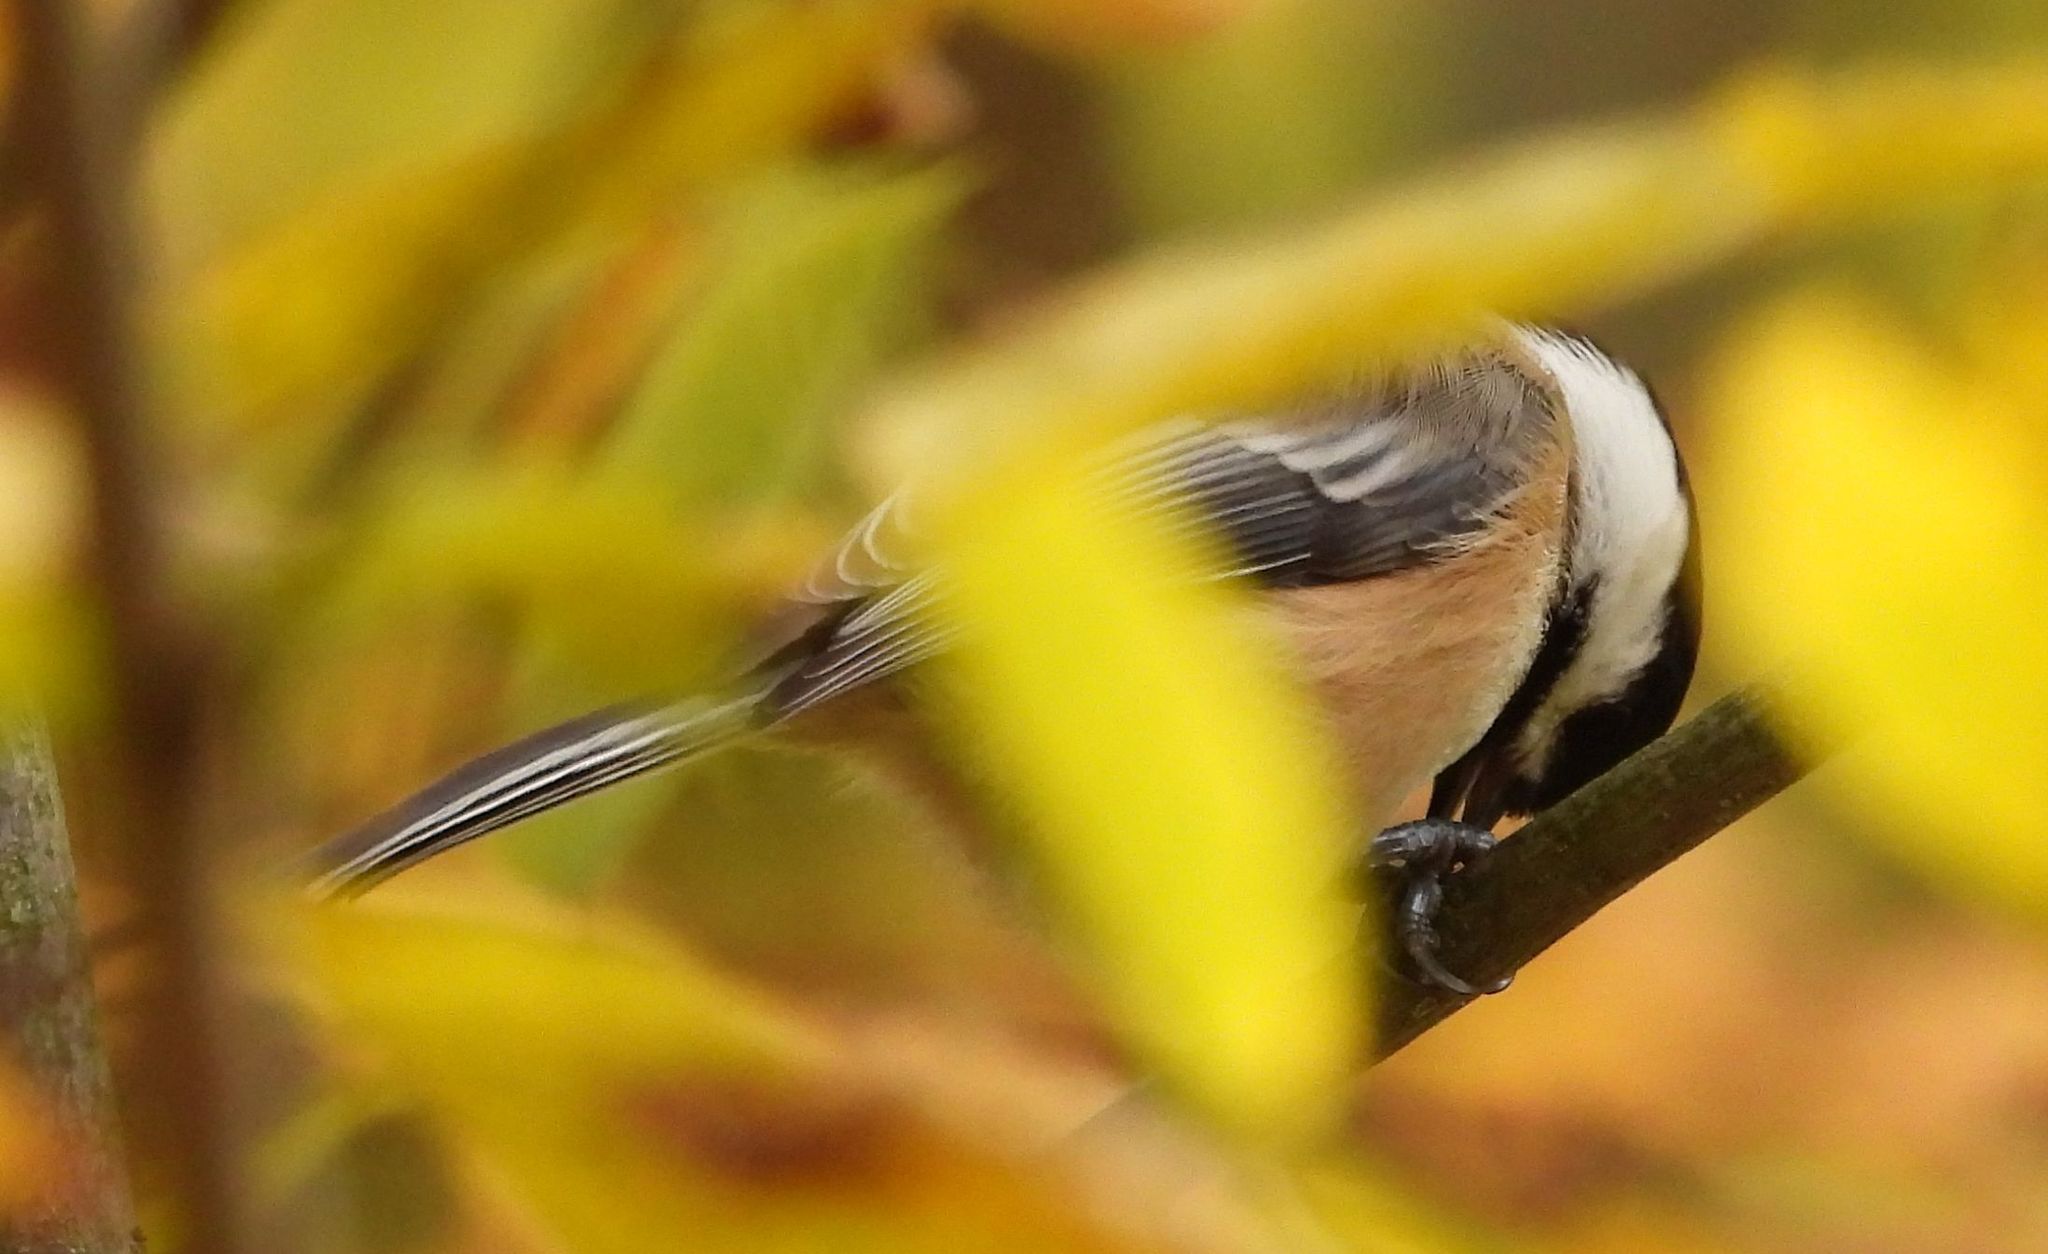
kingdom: Animalia
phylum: Chordata
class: Aves
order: Passeriformes
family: Paridae
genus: Poecile
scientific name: Poecile atricapillus
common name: Black-capped chickadee
